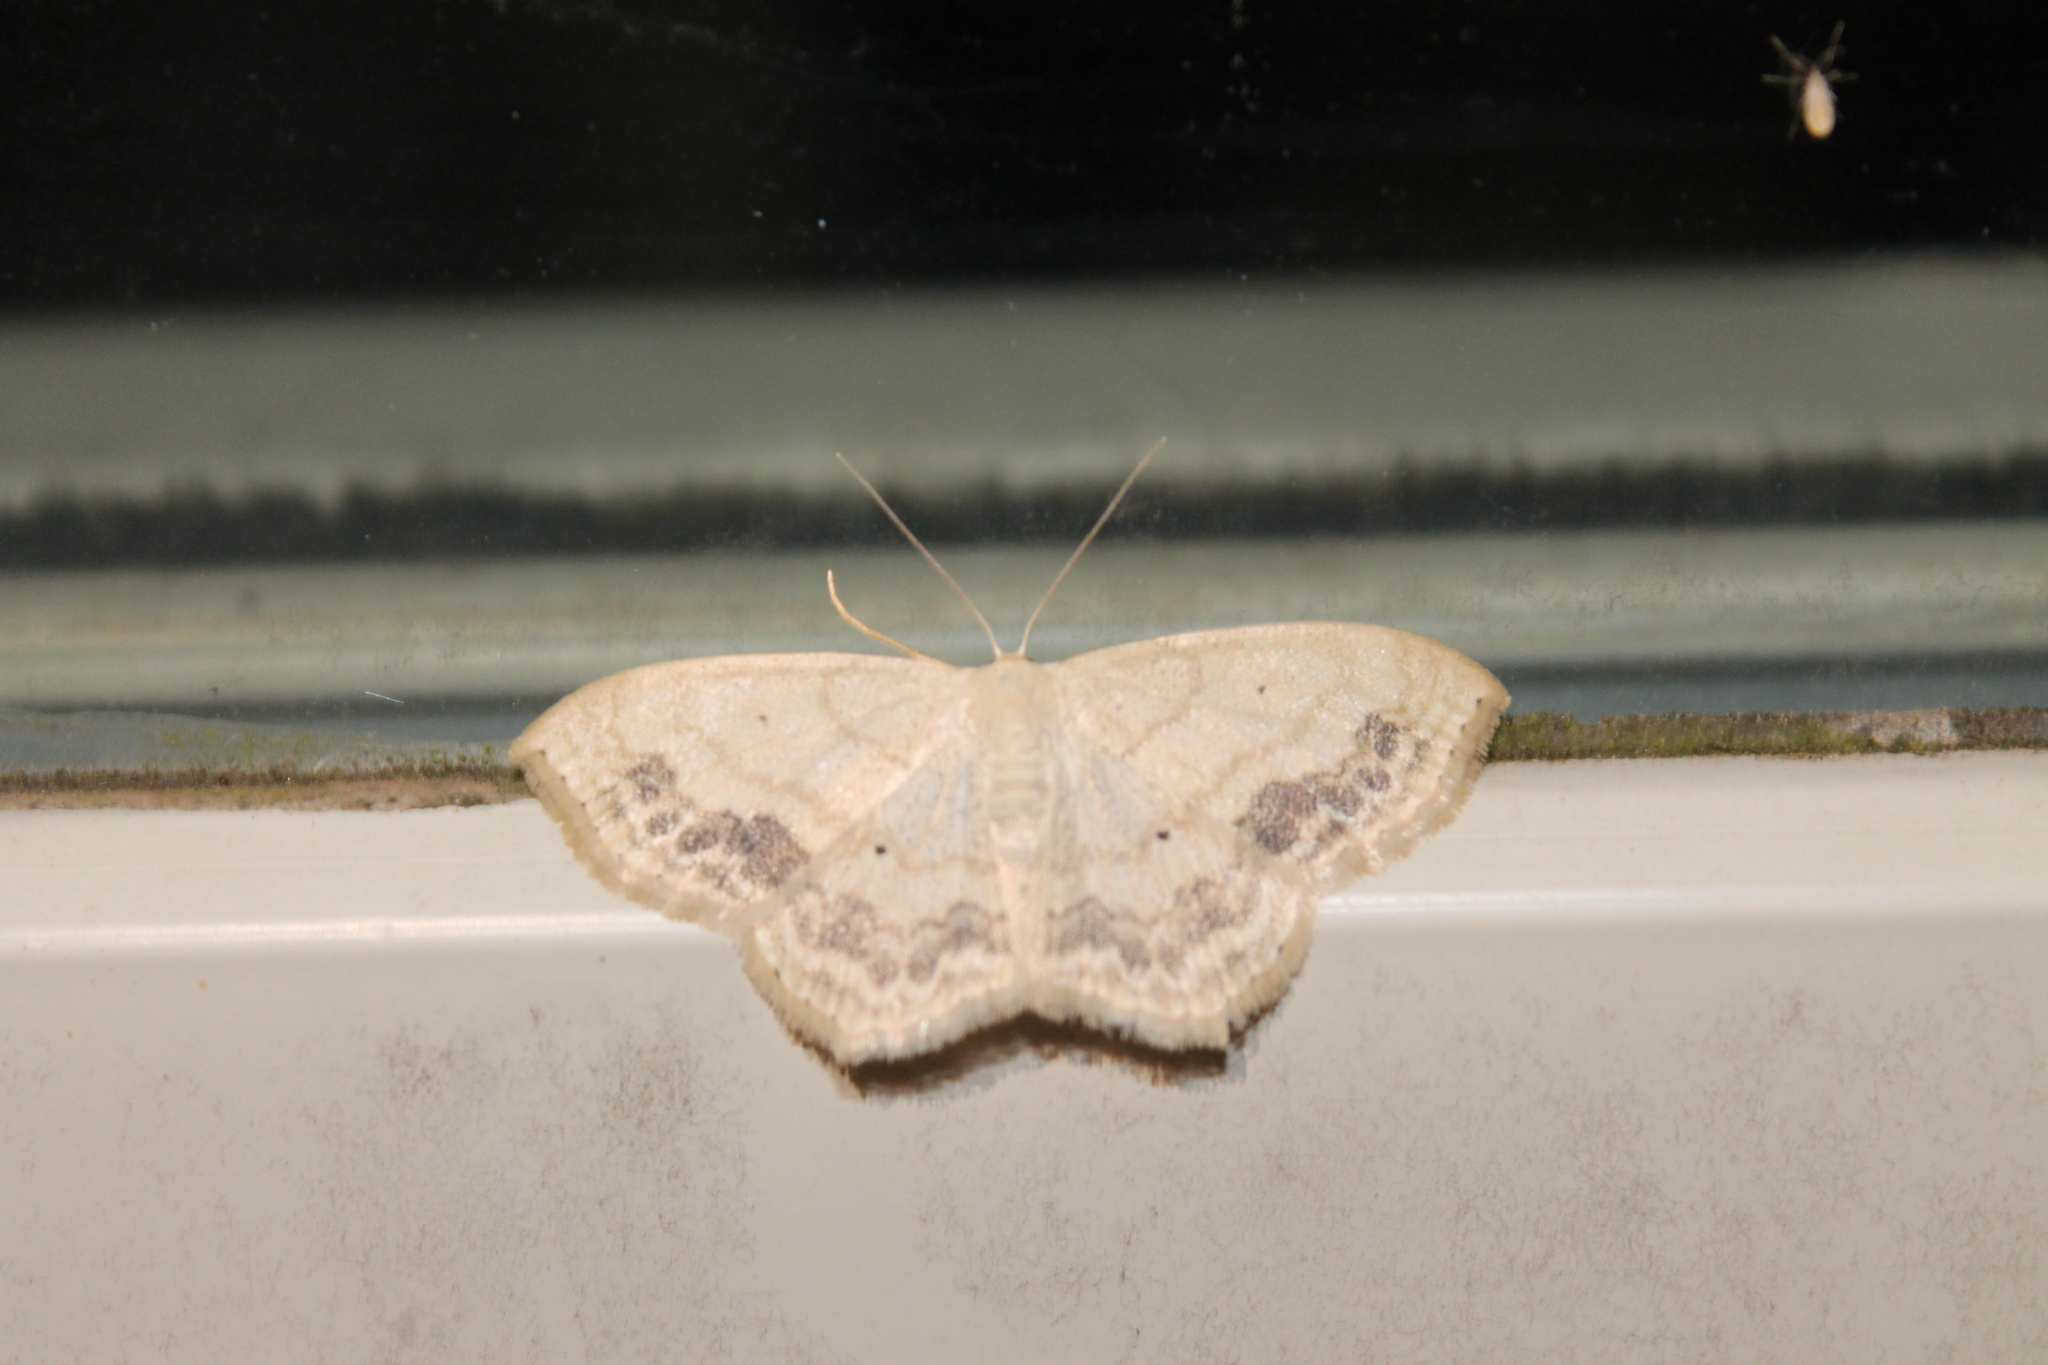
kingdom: Animalia
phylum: Arthropoda
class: Insecta
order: Lepidoptera
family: Geometridae
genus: Scopula
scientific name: Scopula limboundata
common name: Large lace border
